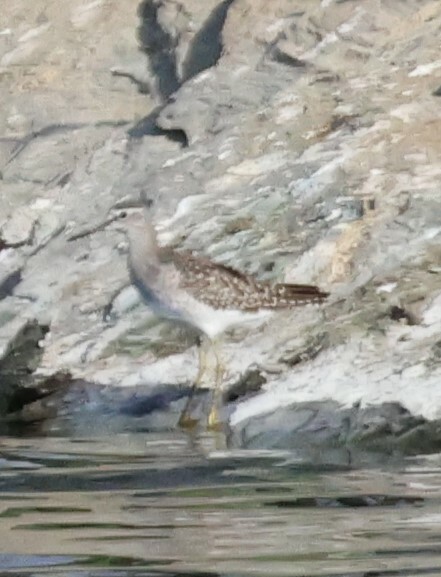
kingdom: Animalia
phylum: Chordata
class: Aves
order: Charadriiformes
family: Scolopacidae
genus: Tringa
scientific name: Tringa glareola
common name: Wood sandpiper
